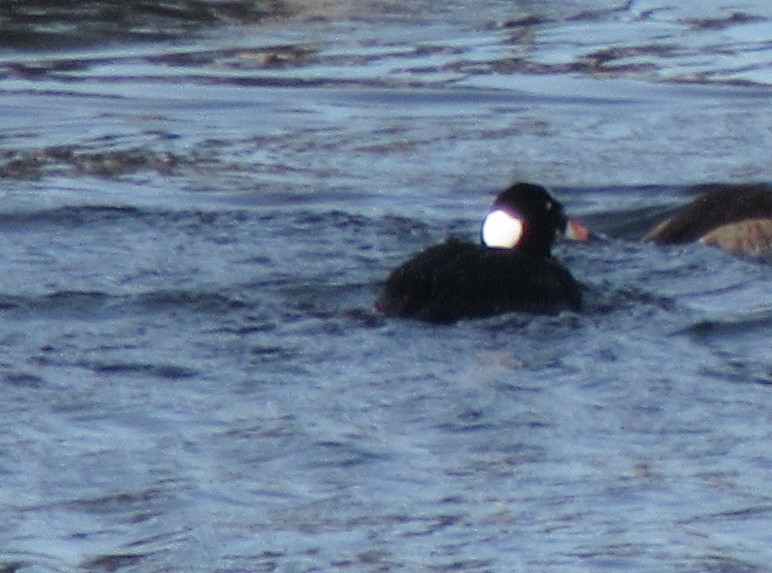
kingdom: Animalia
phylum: Chordata
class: Aves
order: Anseriformes
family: Anatidae
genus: Melanitta
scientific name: Melanitta perspicillata
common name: Surf scoter
